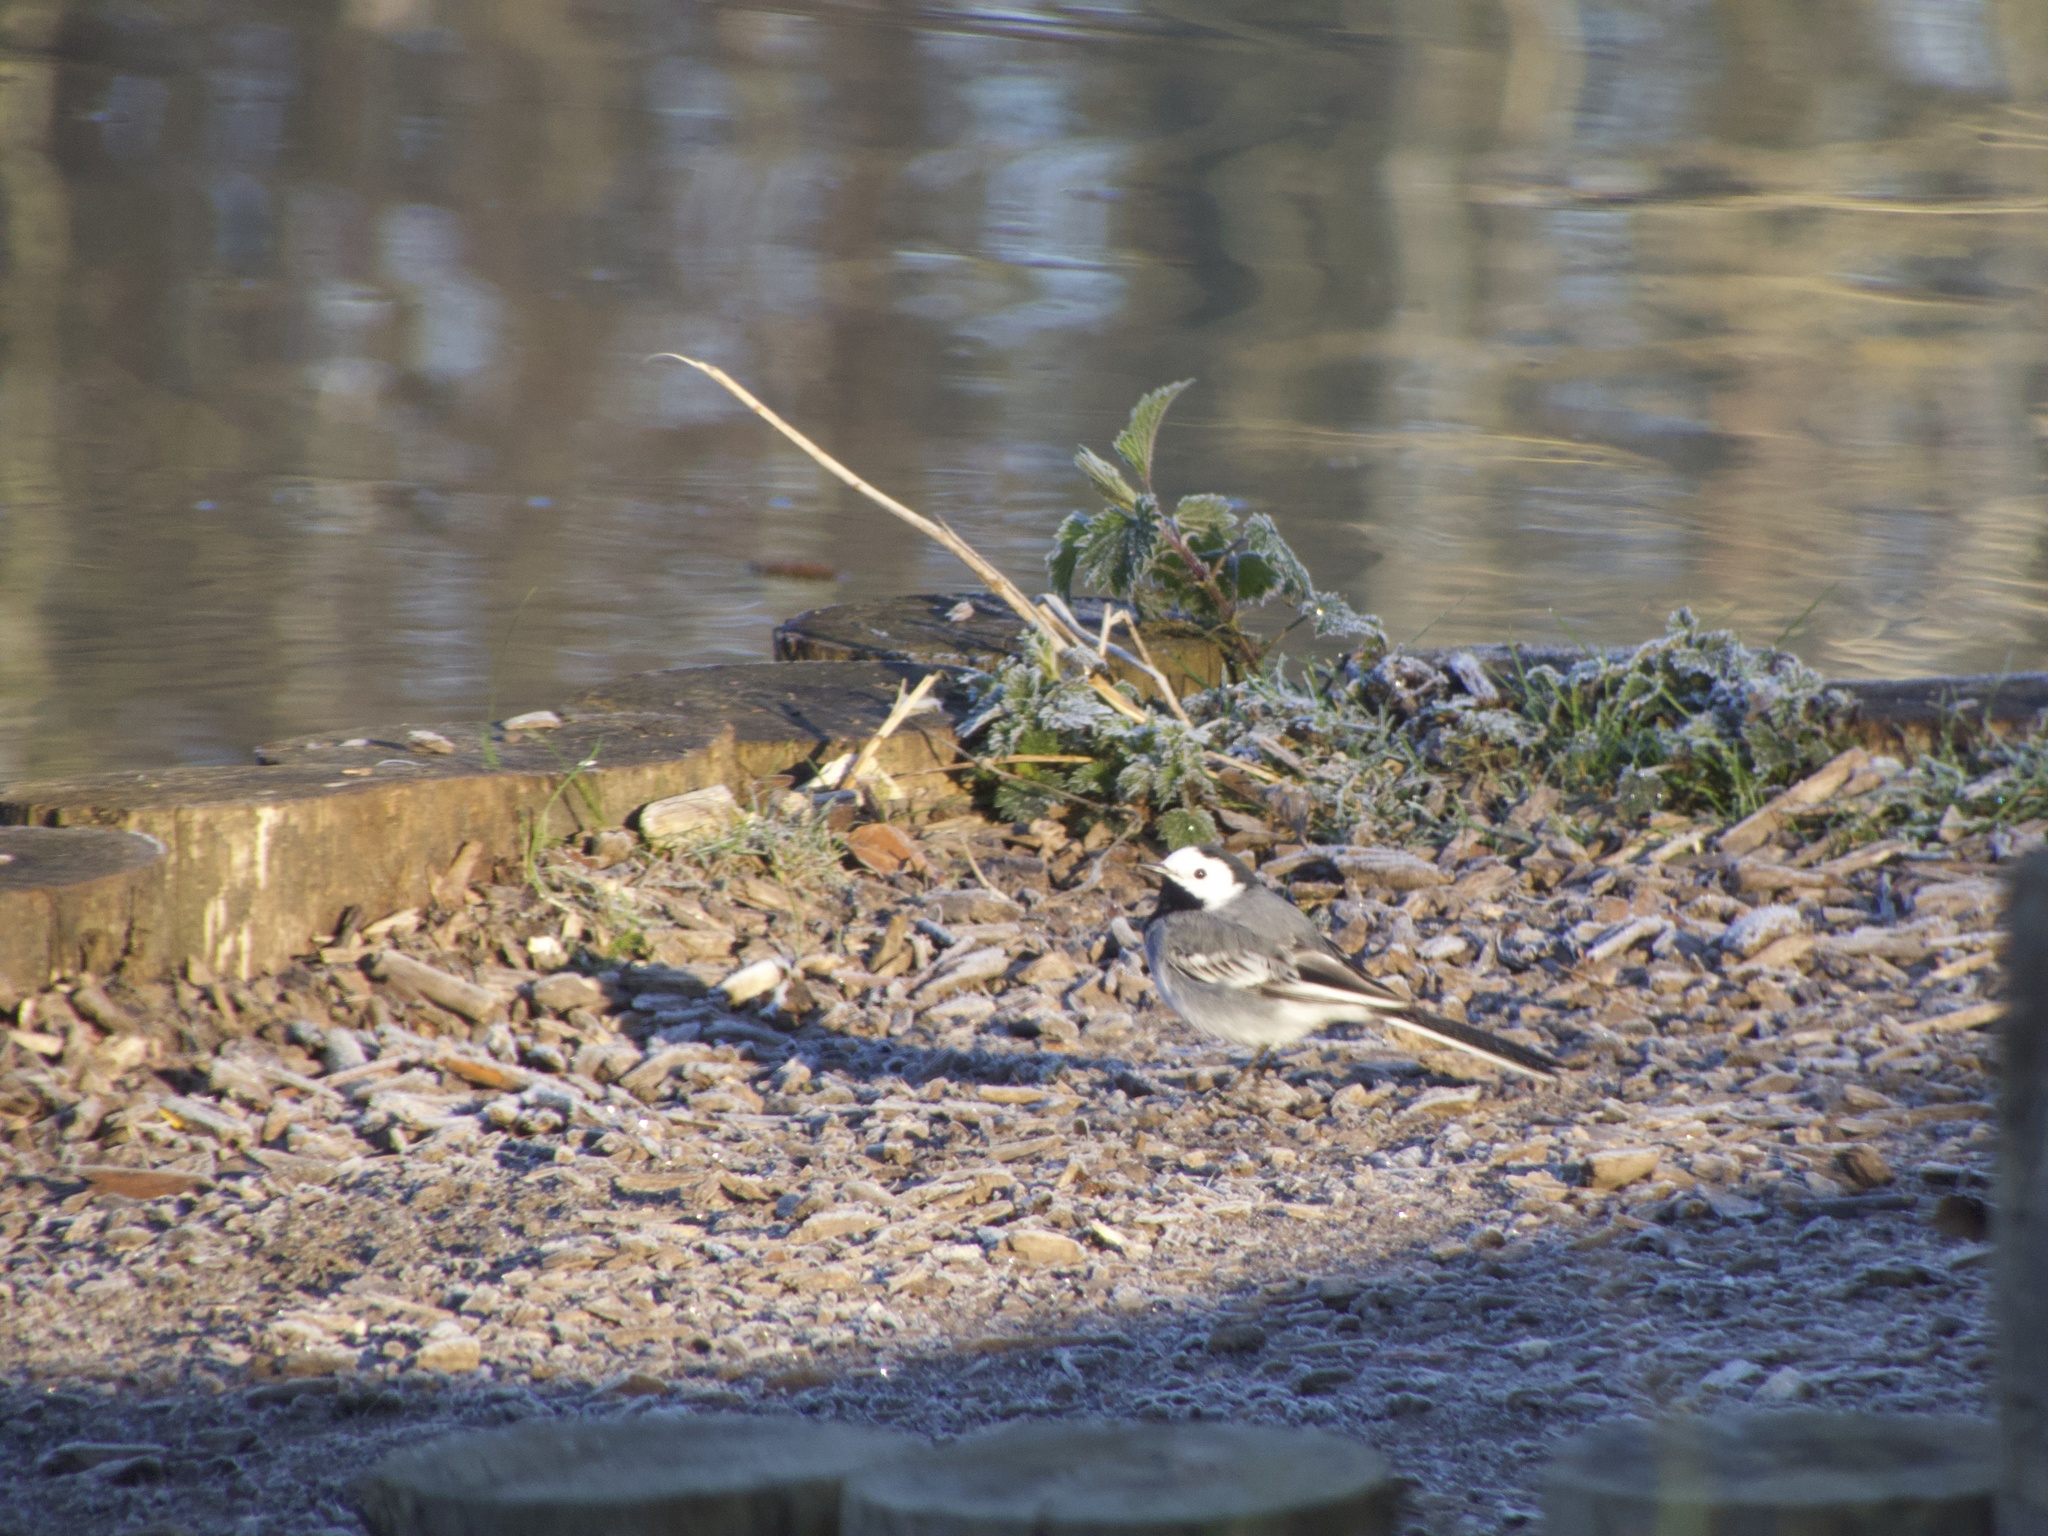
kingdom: Animalia
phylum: Chordata
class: Aves
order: Passeriformes
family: Motacillidae
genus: Motacilla
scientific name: Motacilla alba
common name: White wagtail
